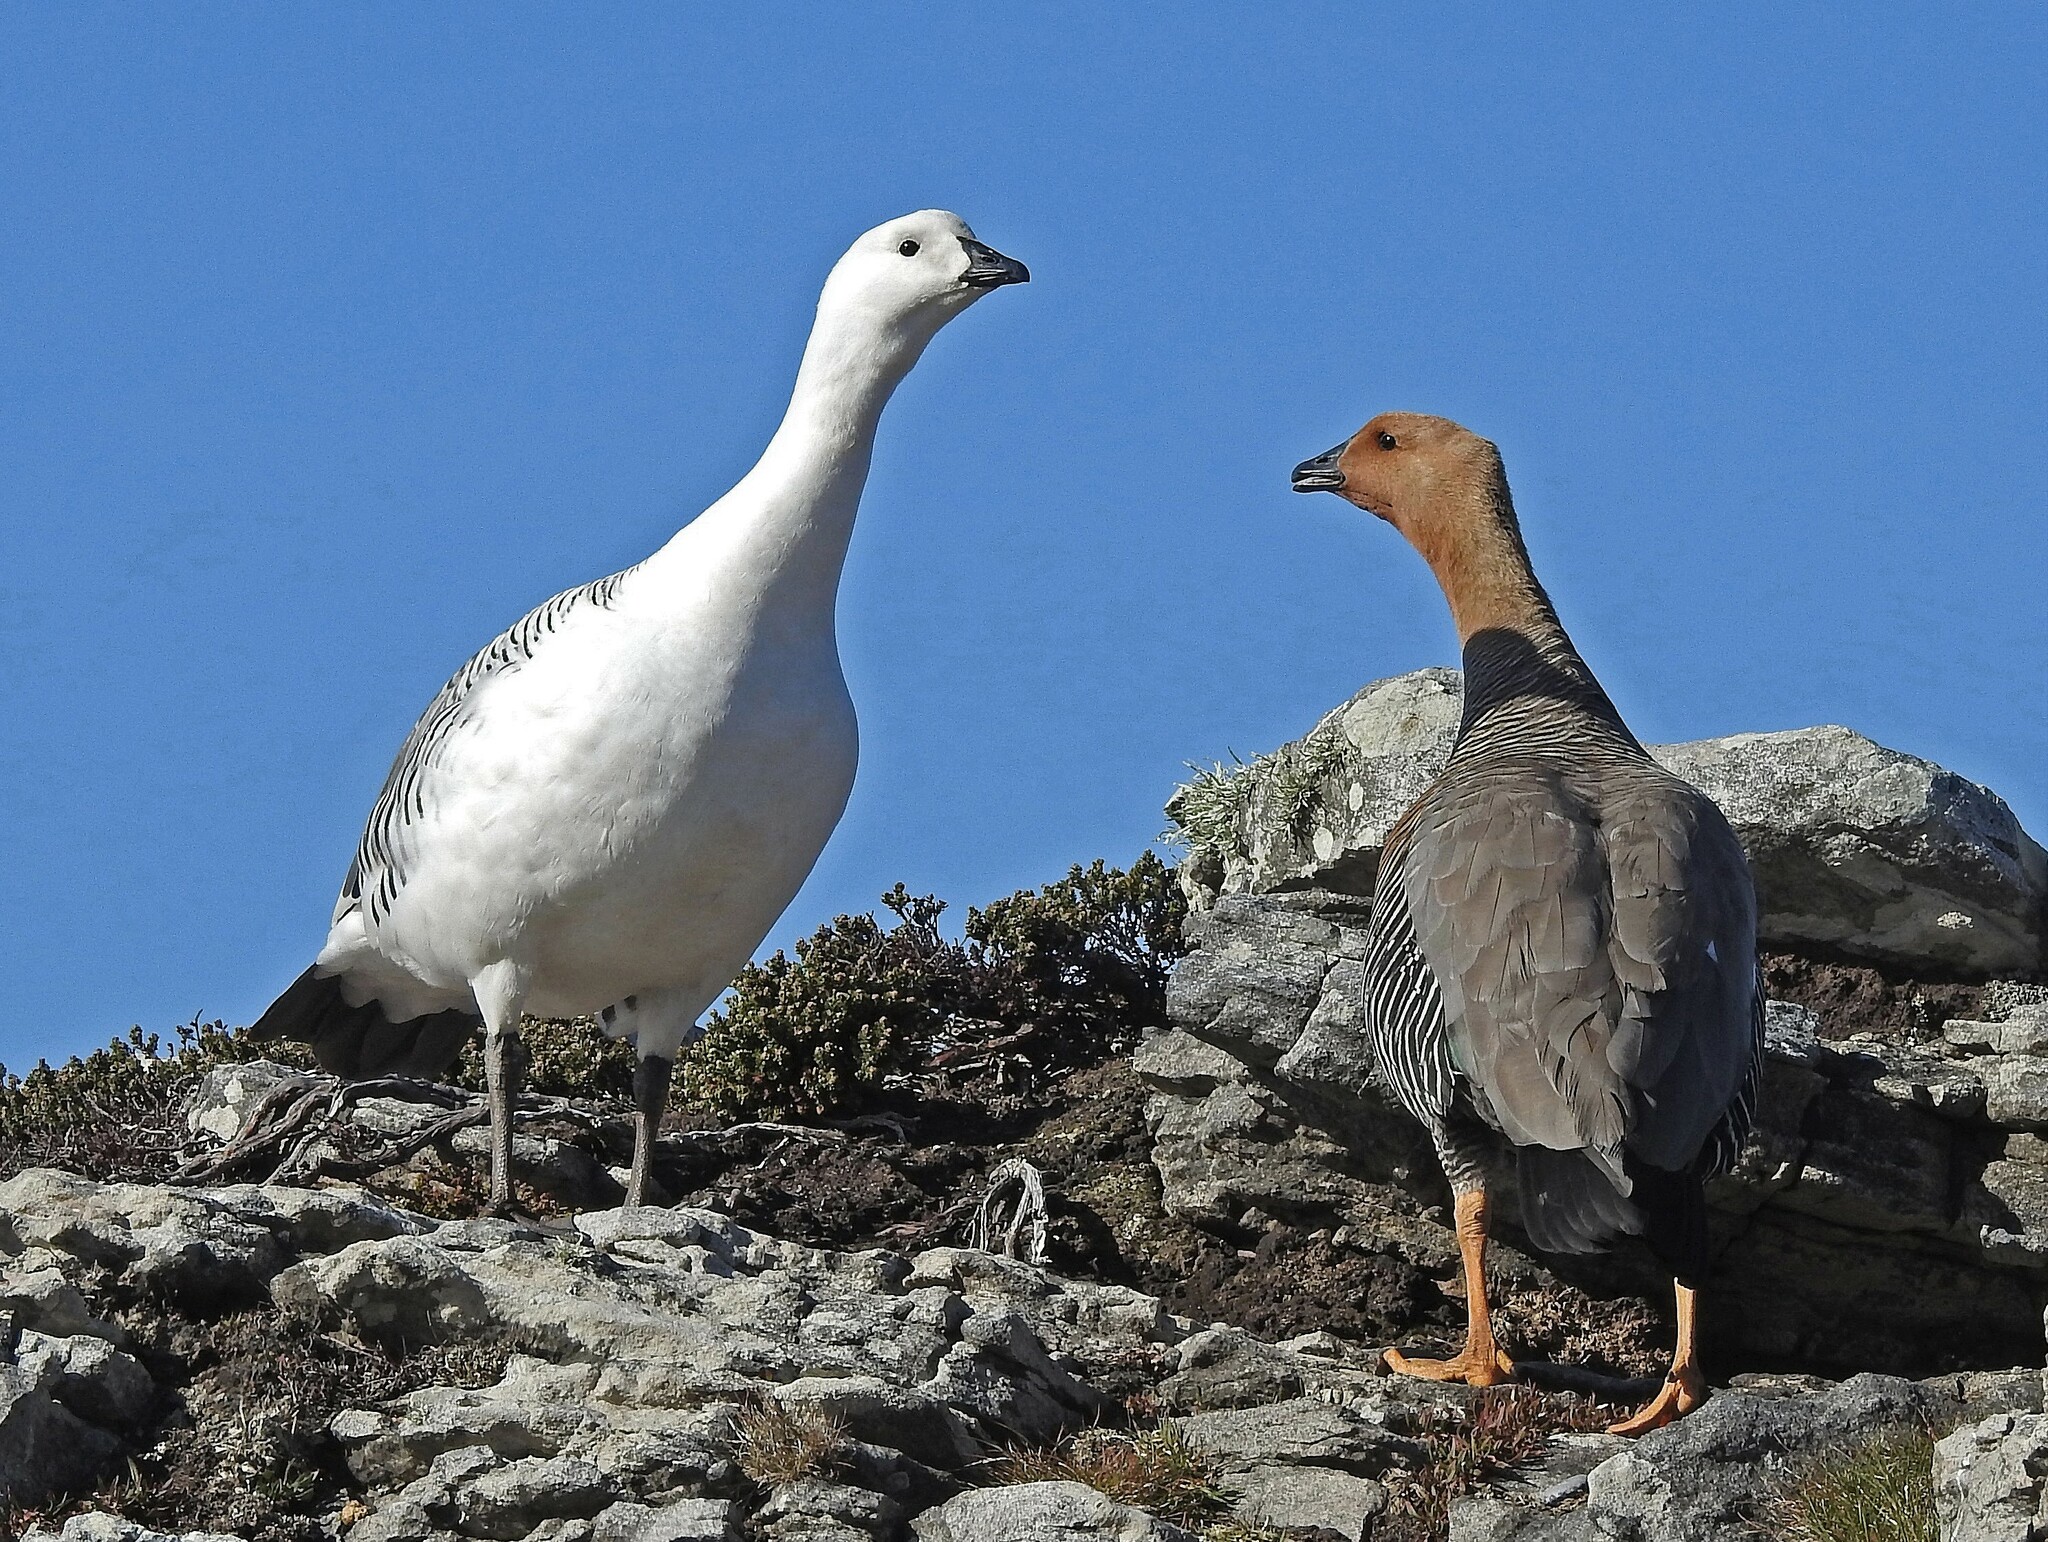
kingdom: Animalia
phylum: Chordata
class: Aves
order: Anseriformes
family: Anatidae
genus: Chloephaga
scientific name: Chloephaga picta
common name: Upland goose
